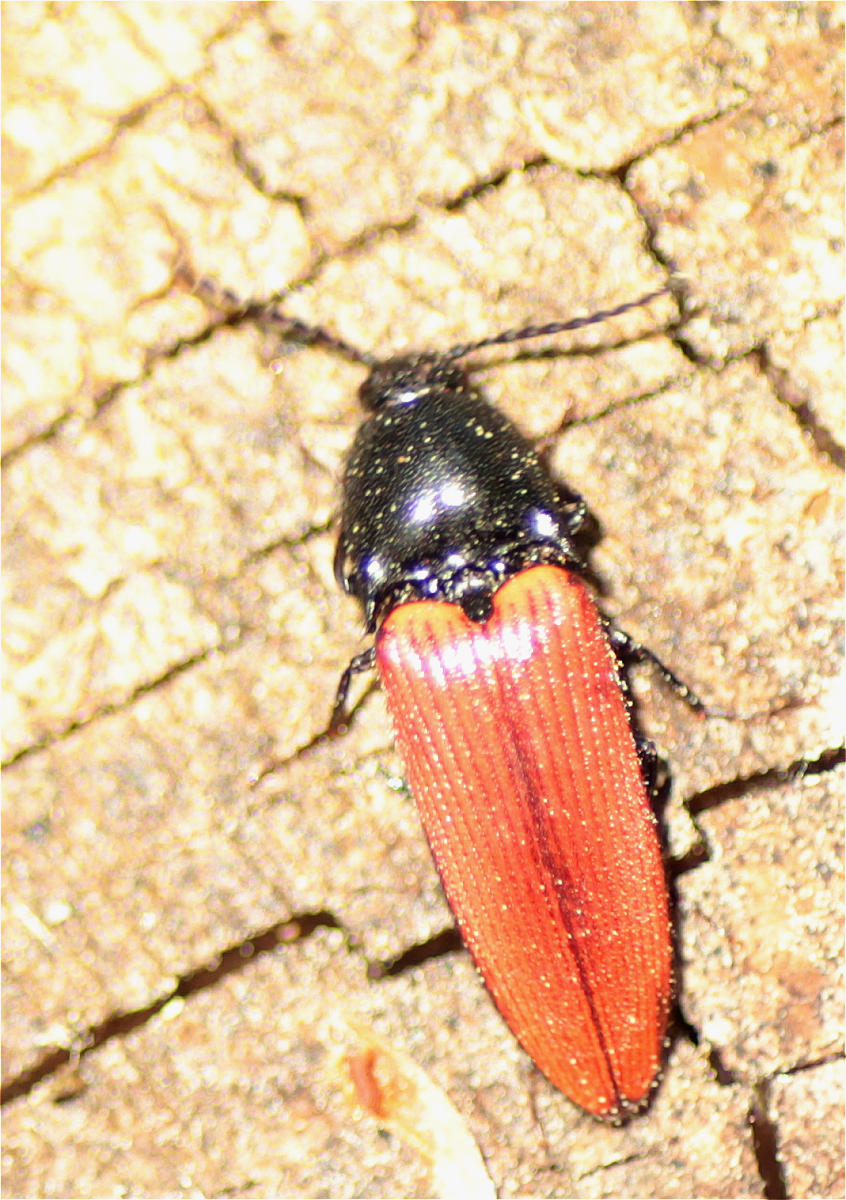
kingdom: Animalia
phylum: Arthropoda
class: Insecta
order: Coleoptera
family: Elateridae
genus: Ampedus
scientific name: Ampedus sanguineus
